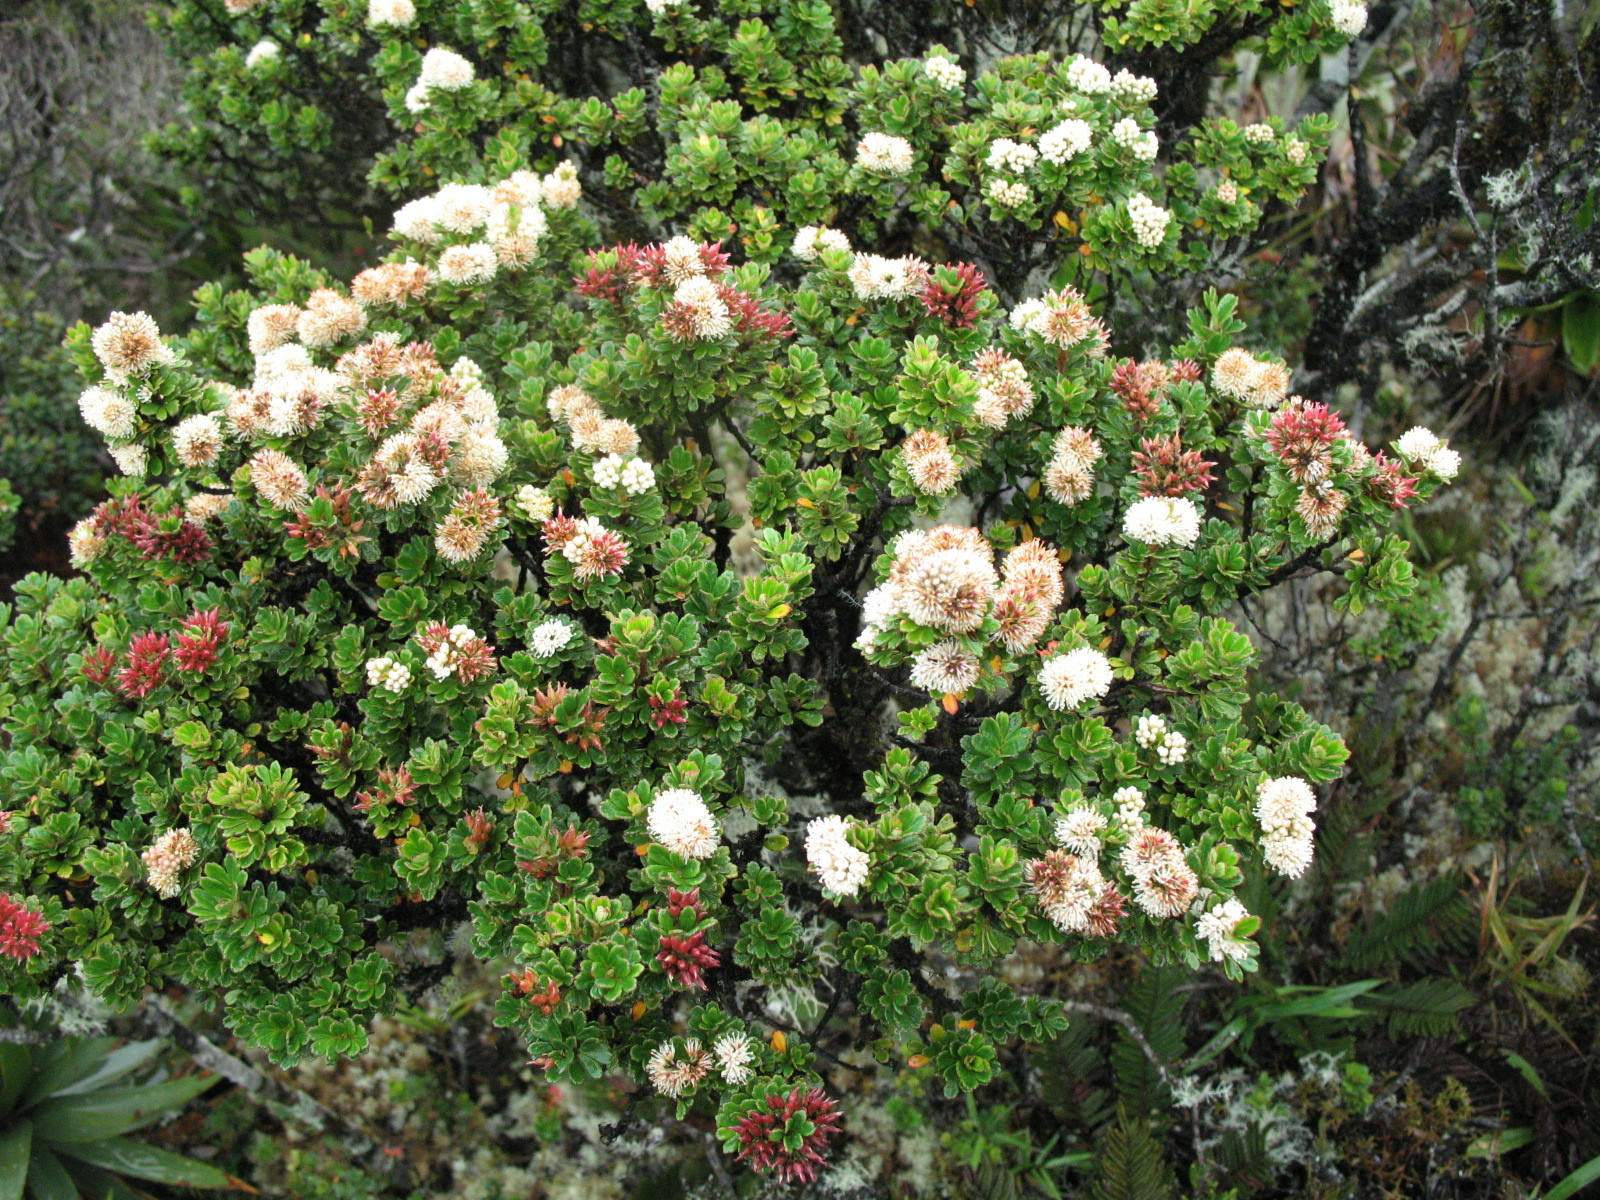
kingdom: Plantae
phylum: Tracheophyta
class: Magnoliopsida
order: Oxalidales
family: Cunoniaceae
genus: Weinmannia
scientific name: Weinmannia cochensis
